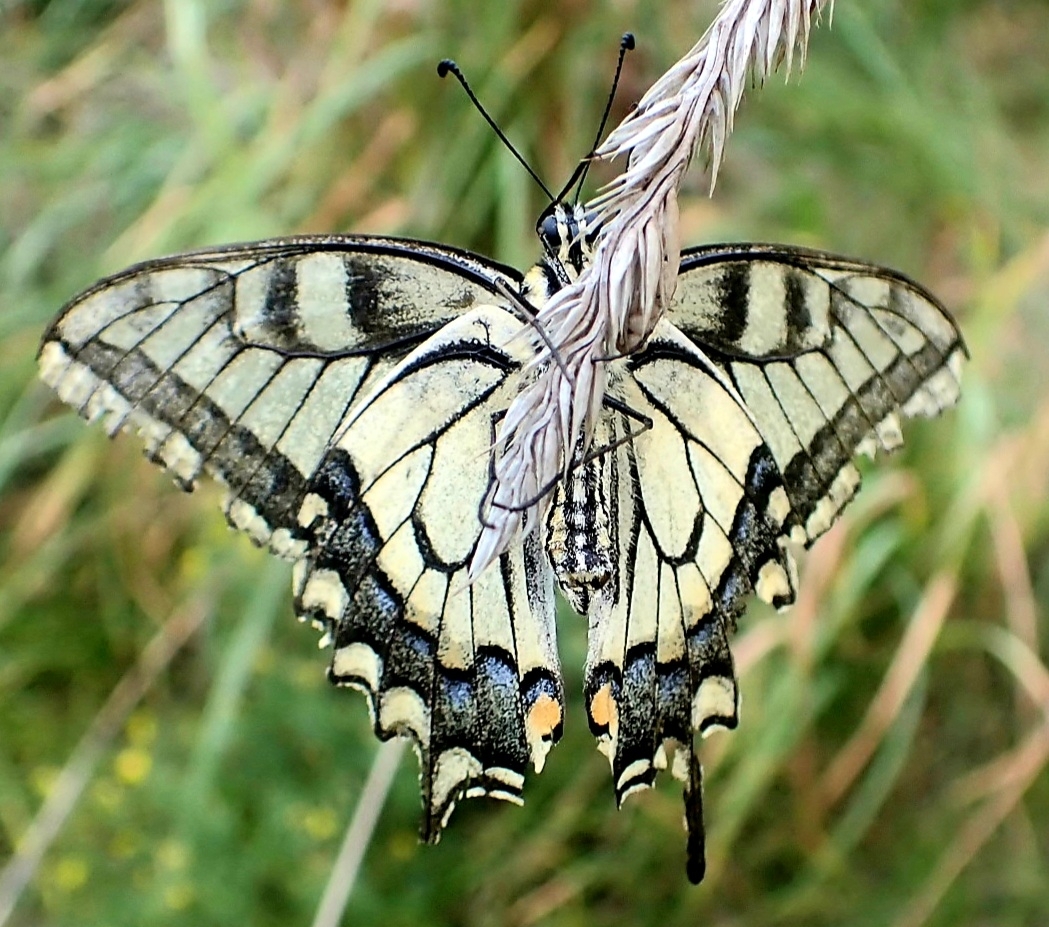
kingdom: Animalia
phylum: Arthropoda
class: Insecta
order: Lepidoptera
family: Papilionidae
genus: Papilio
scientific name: Papilio machaon
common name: Swallowtail
